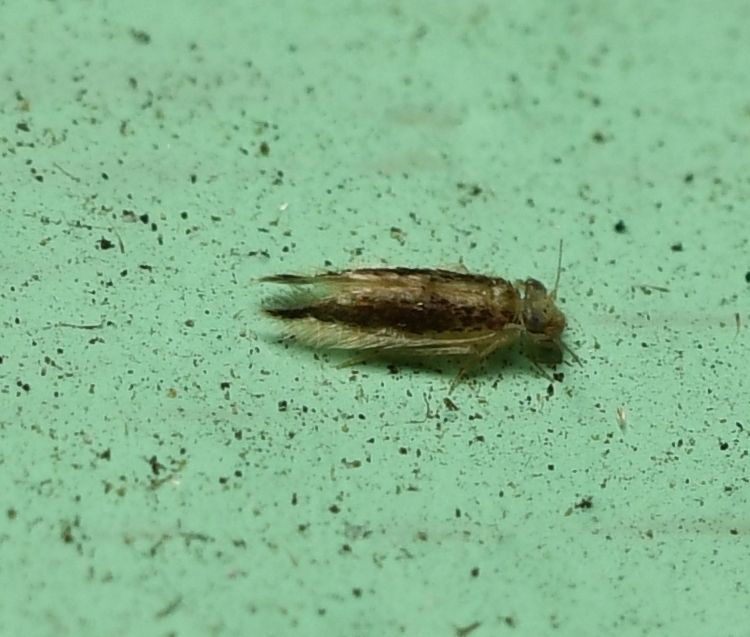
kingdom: Animalia
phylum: Arthropoda
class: Insecta
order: Psocodea
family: Lepidopsocidae
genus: Echmepteryx
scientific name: Echmepteryx madagascariensis
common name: Bark lice
